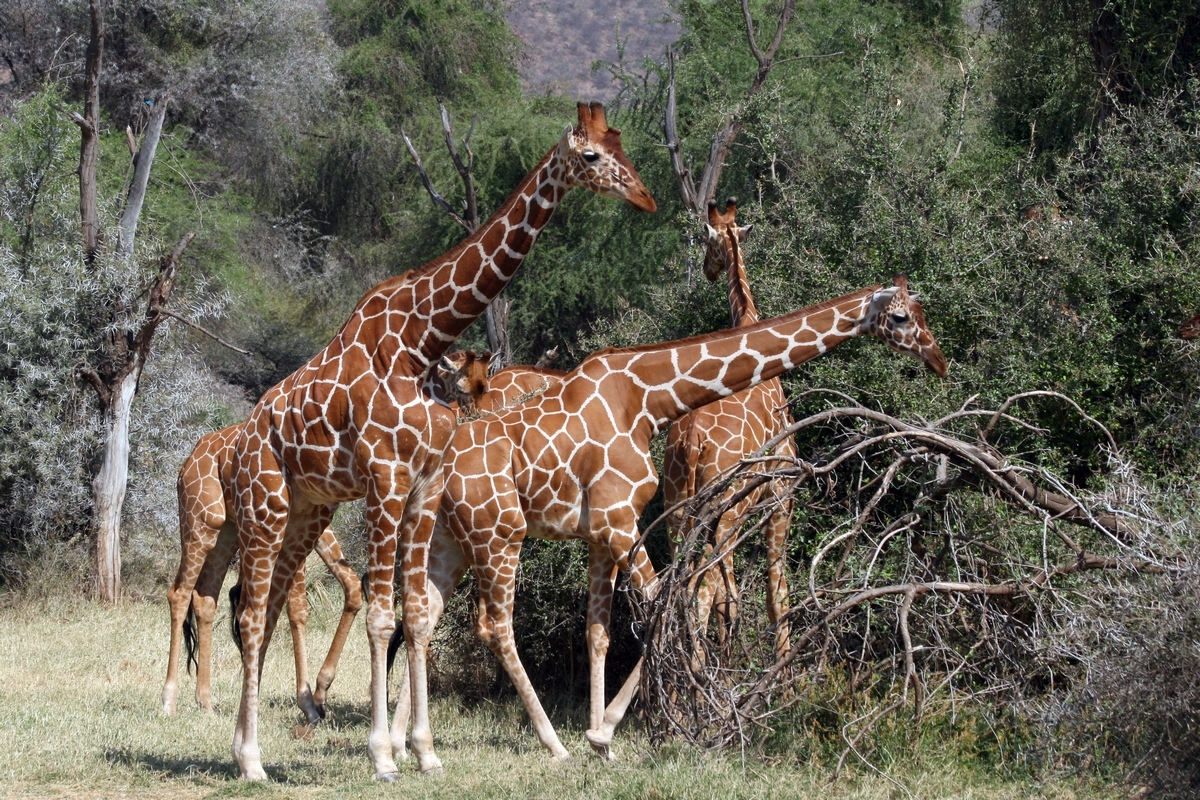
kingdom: Animalia
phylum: Chordata
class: Mammalia
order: Artiodactyla
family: Giraffidae
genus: Giraffa
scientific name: Giraffa reticulata
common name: Reticulated giraffe
